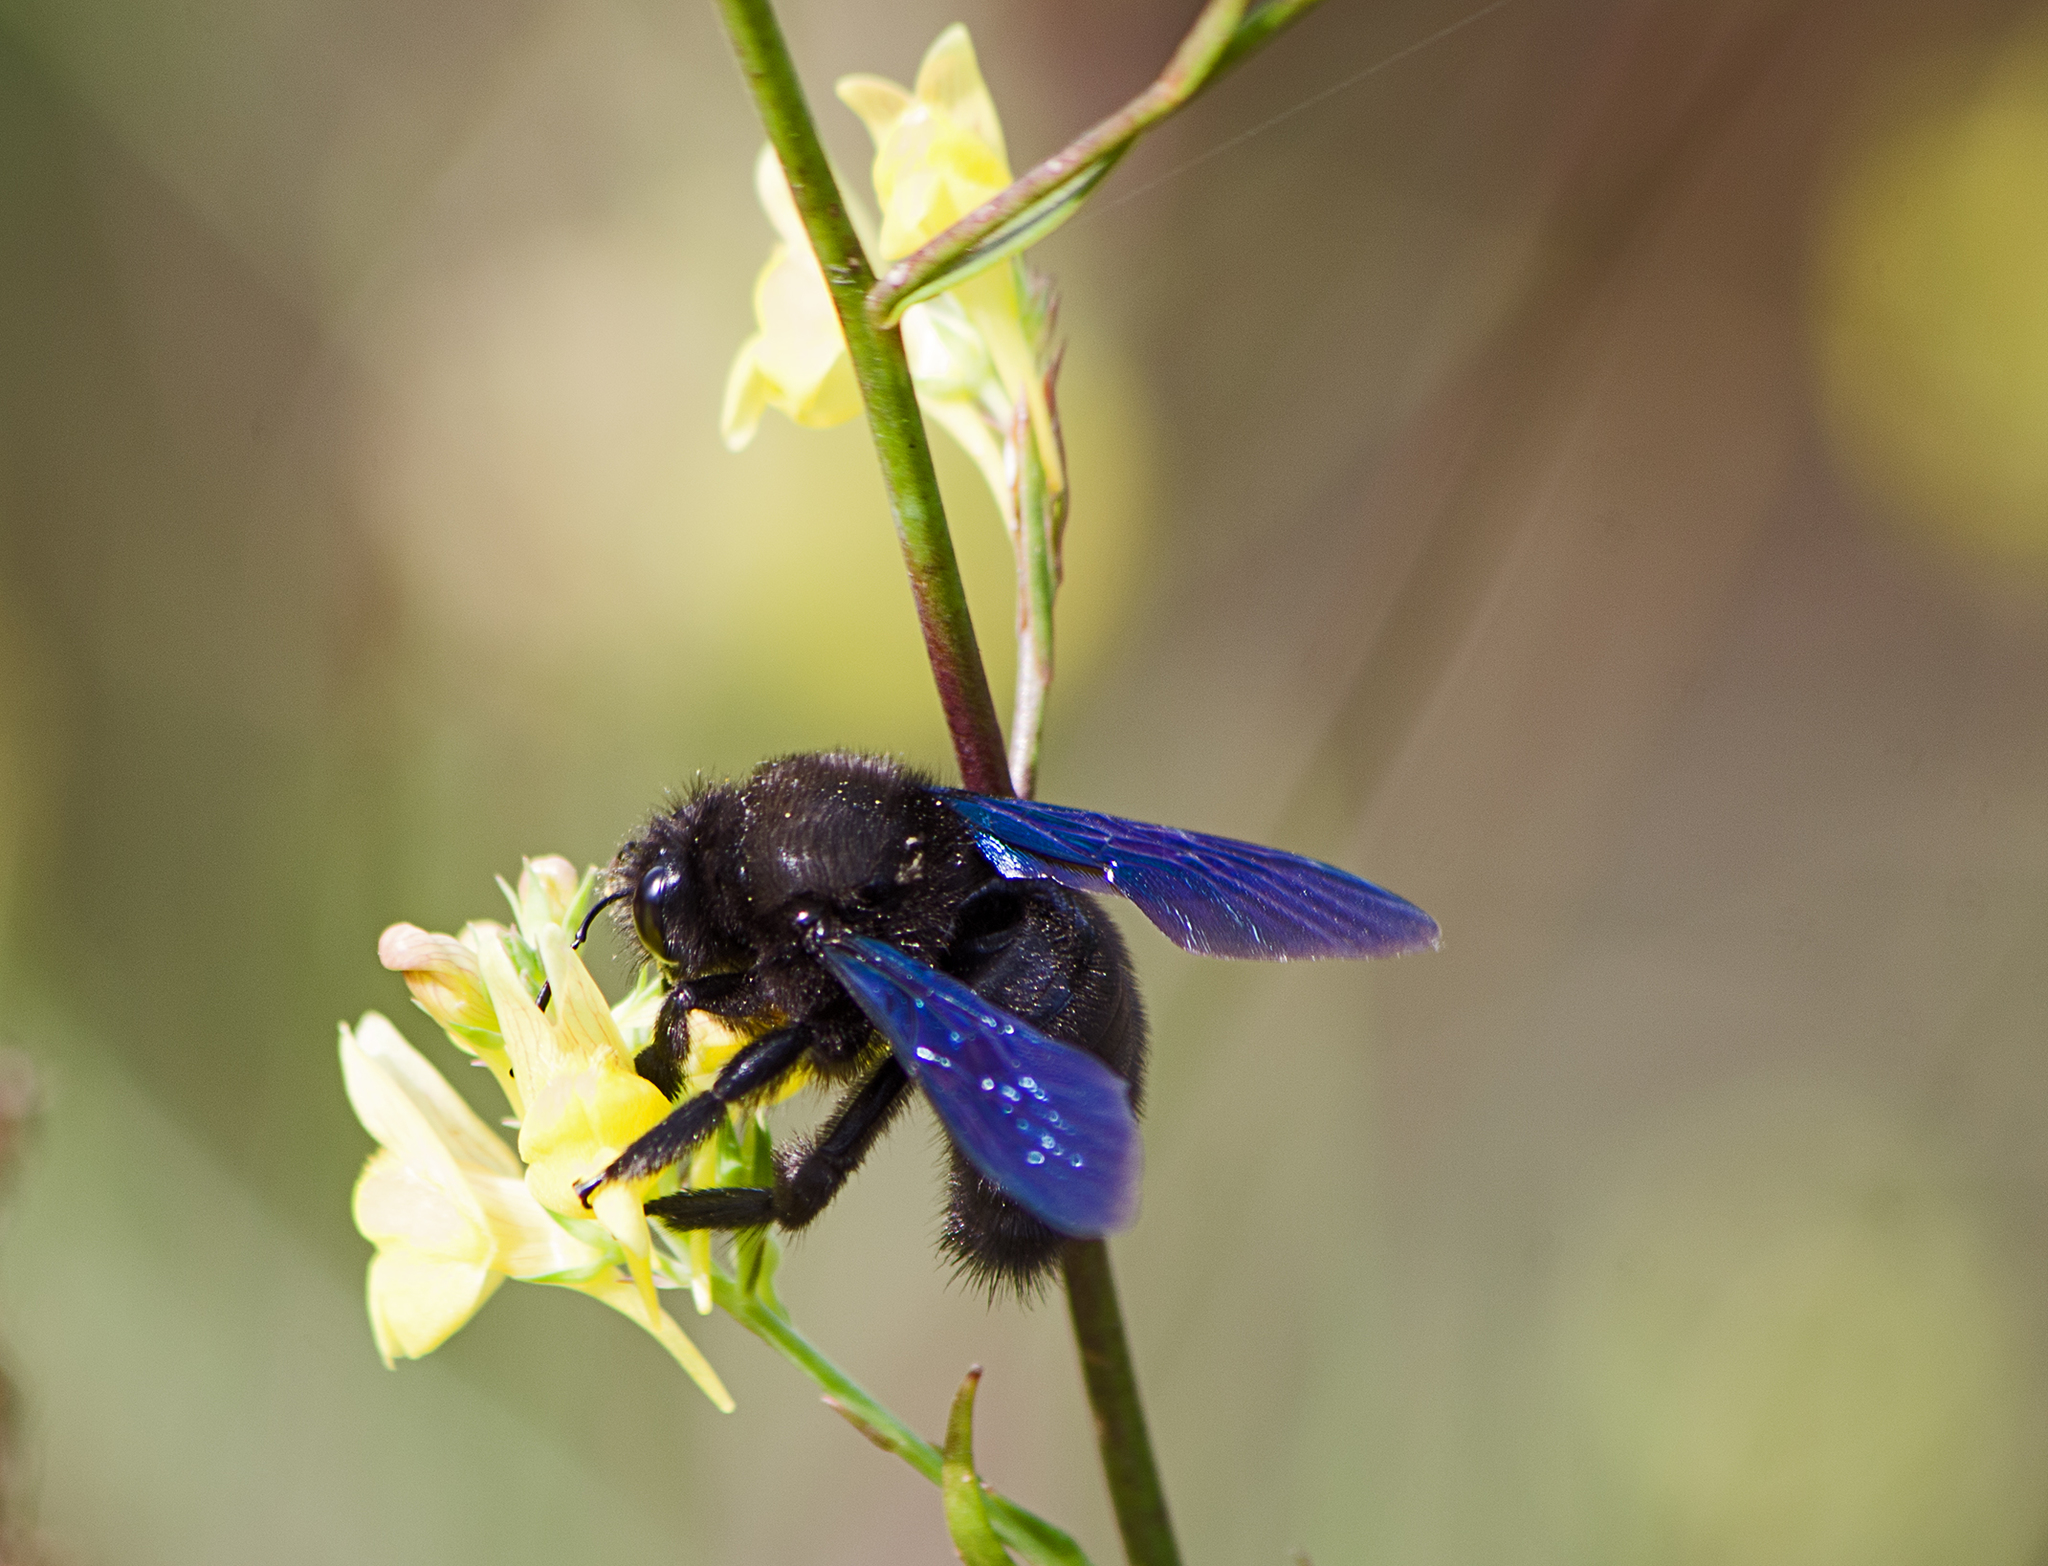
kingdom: Animalia
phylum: Arthropoda
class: Insecta
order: Hymenoptera
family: Apidae
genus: Xylocopa
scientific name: Xylocopa violacea
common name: Violet carpenter bee
